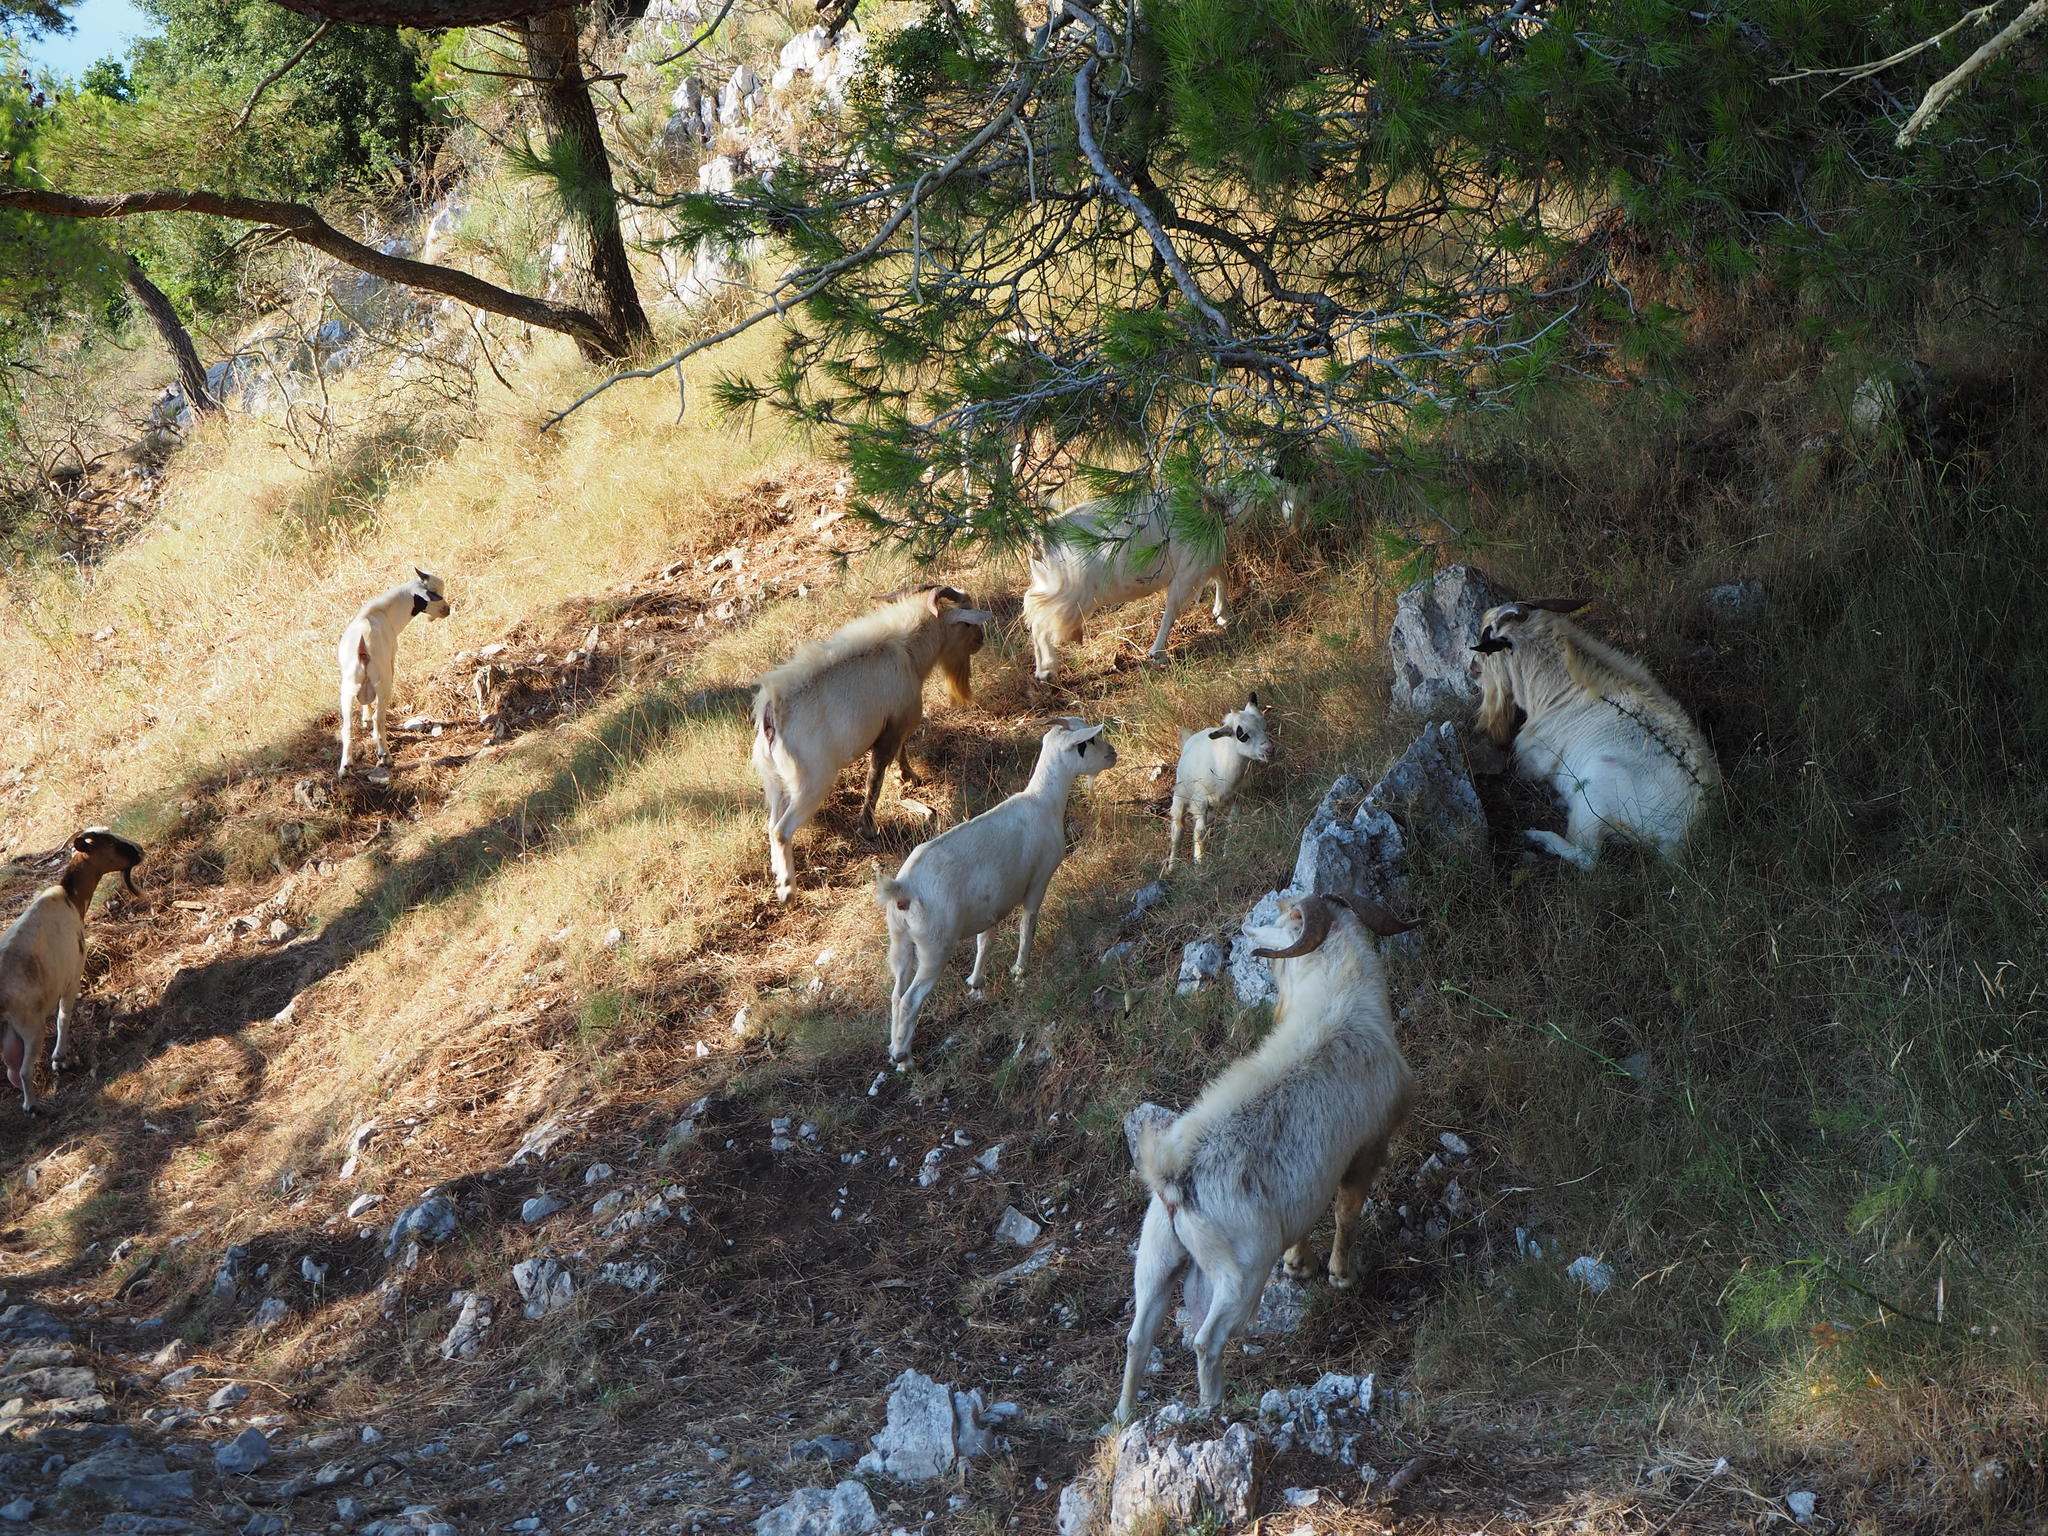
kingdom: Animalia
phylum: Chordata
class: Mammalia
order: Artiodactyla
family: Bovidae
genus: Capra
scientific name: Capra hircus
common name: Domestic goat
